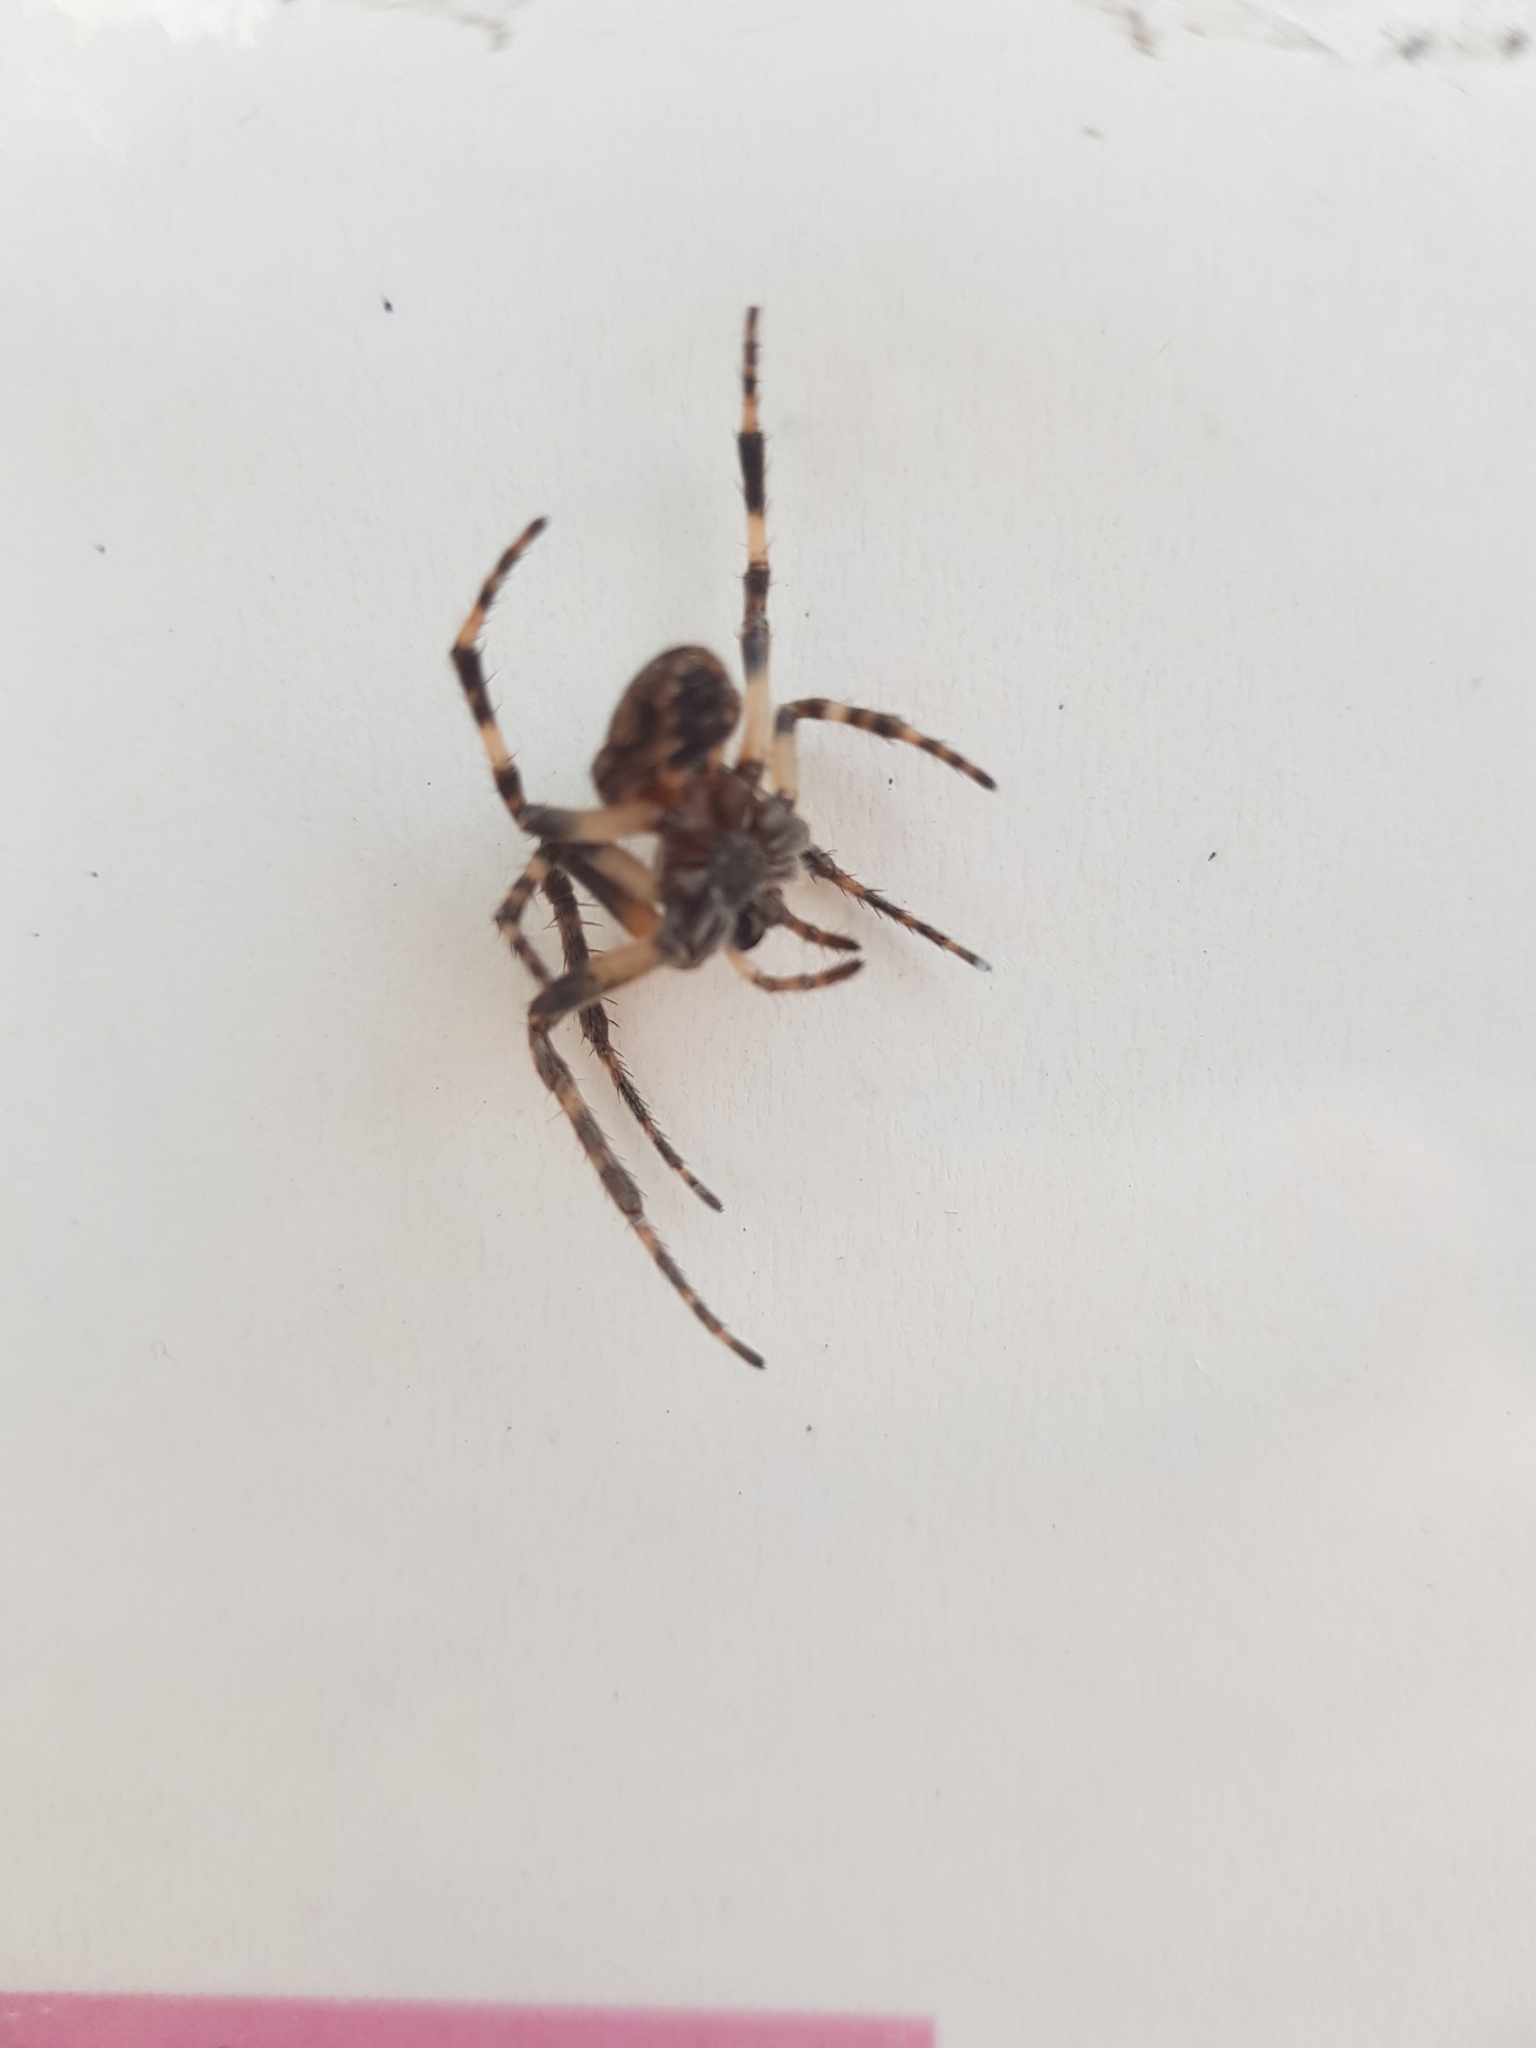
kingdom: Animalia
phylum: Arthropoda
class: Arachnida
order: Araneae
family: Araneidae
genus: Larinioides
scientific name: Larinioides sclopetarius
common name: Bridge orbweaver
